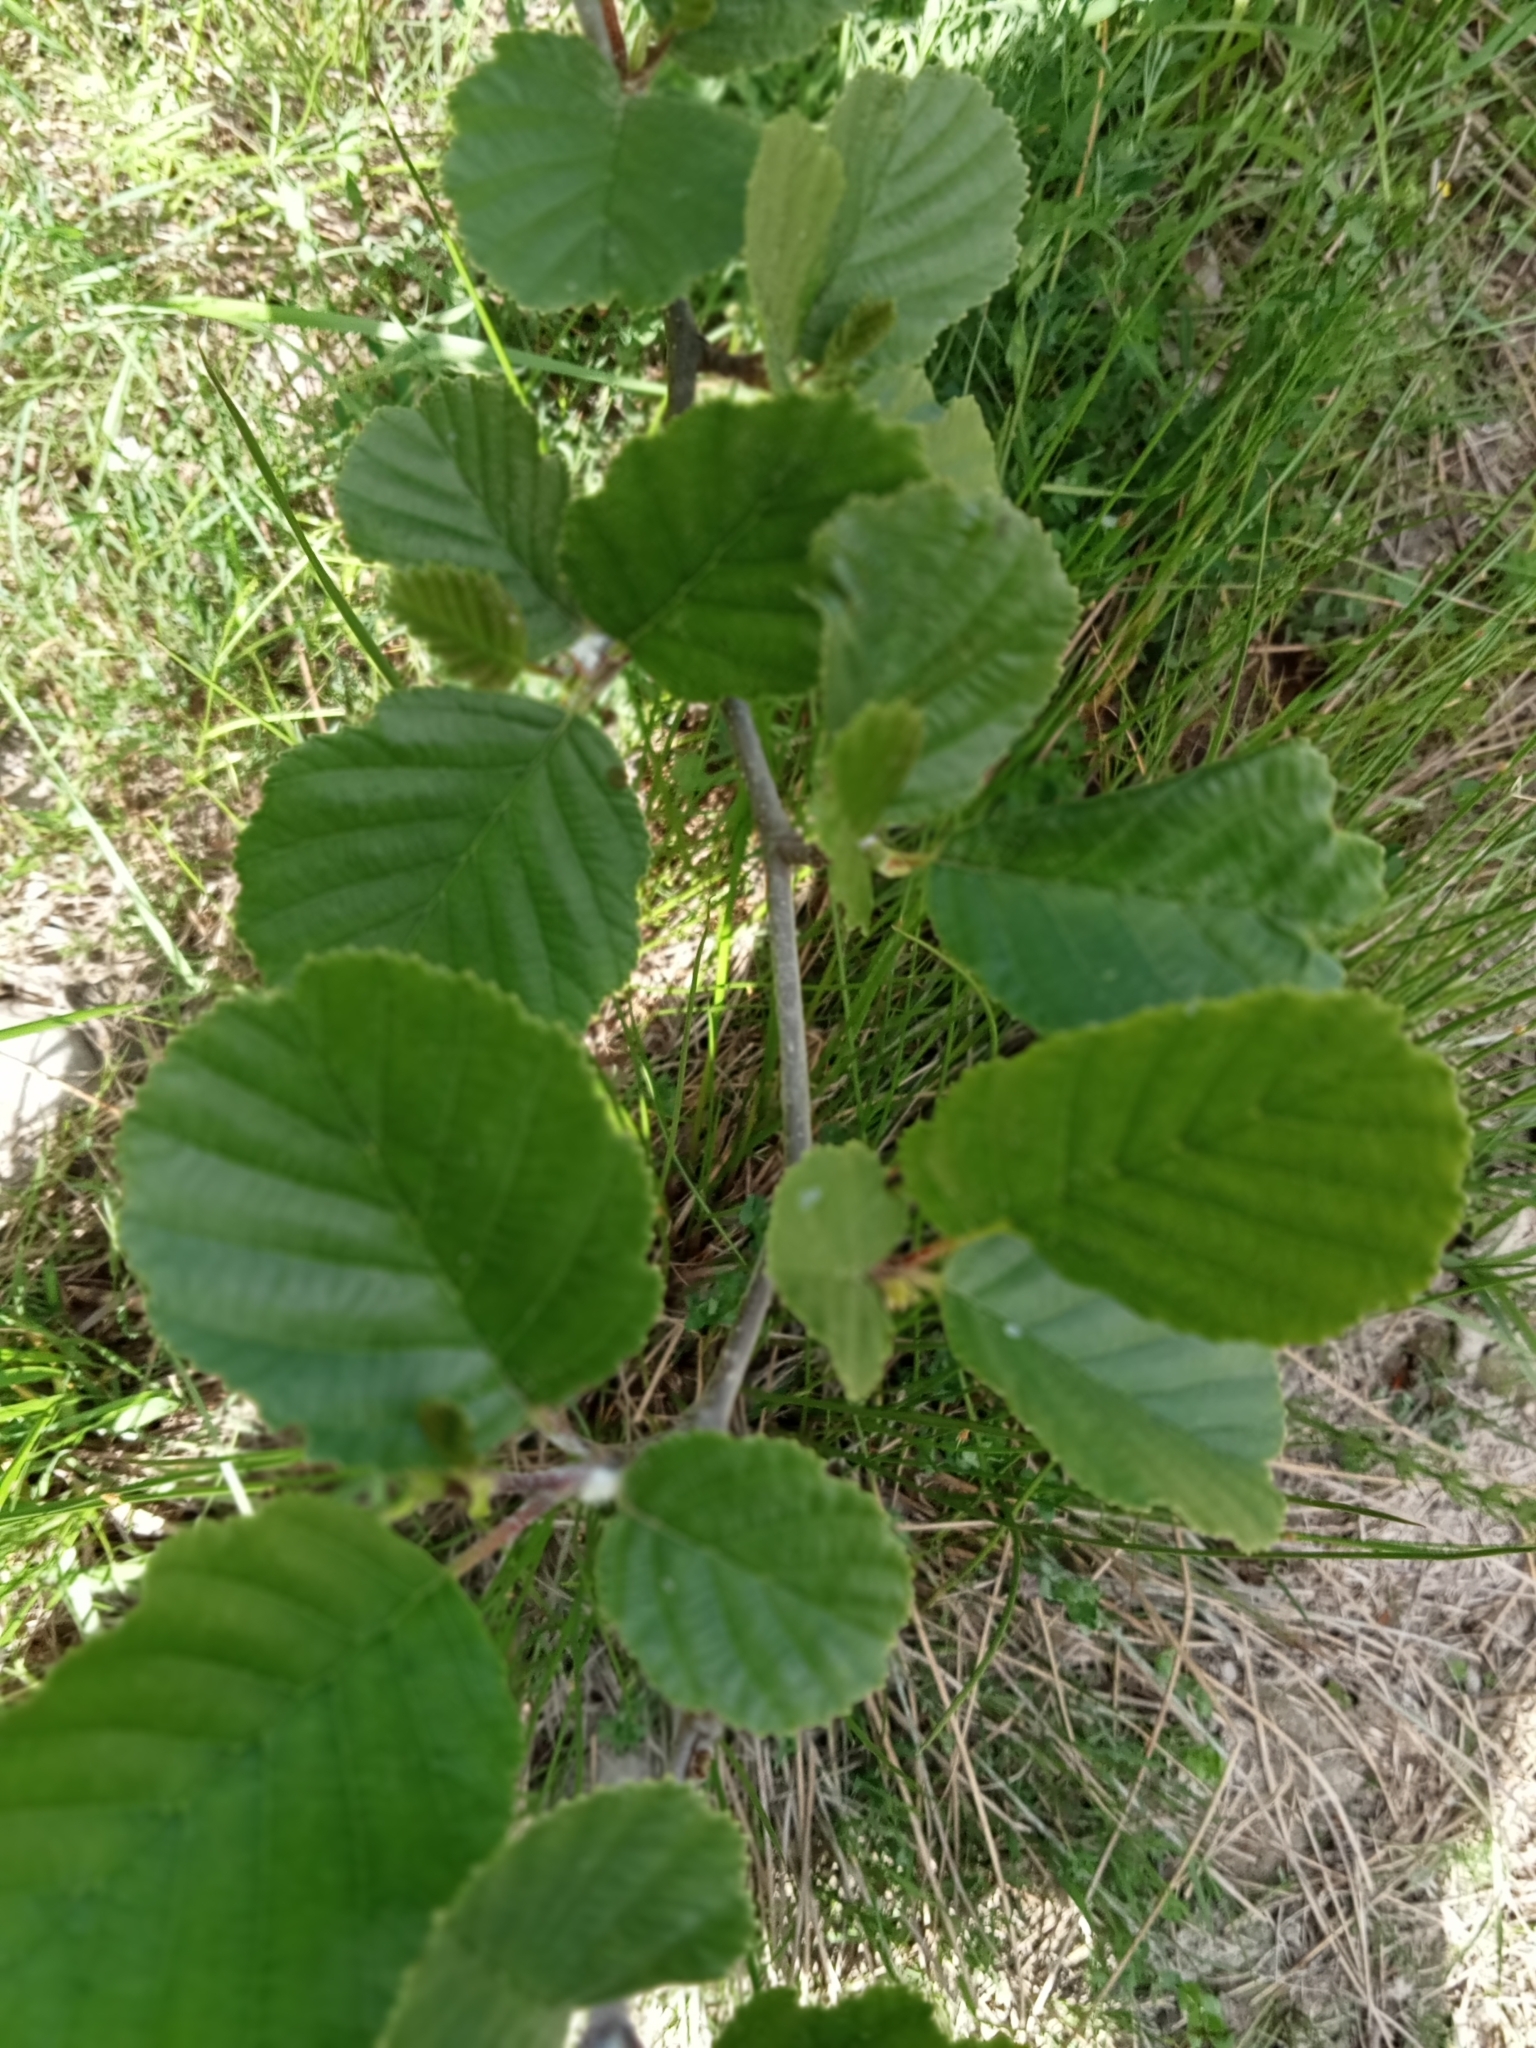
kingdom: Plantae
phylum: Tracheophyta
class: Magnoliopsida
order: Fagales
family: Betulaceae
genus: Alnus
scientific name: Alnus glutinosa
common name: Black alder
